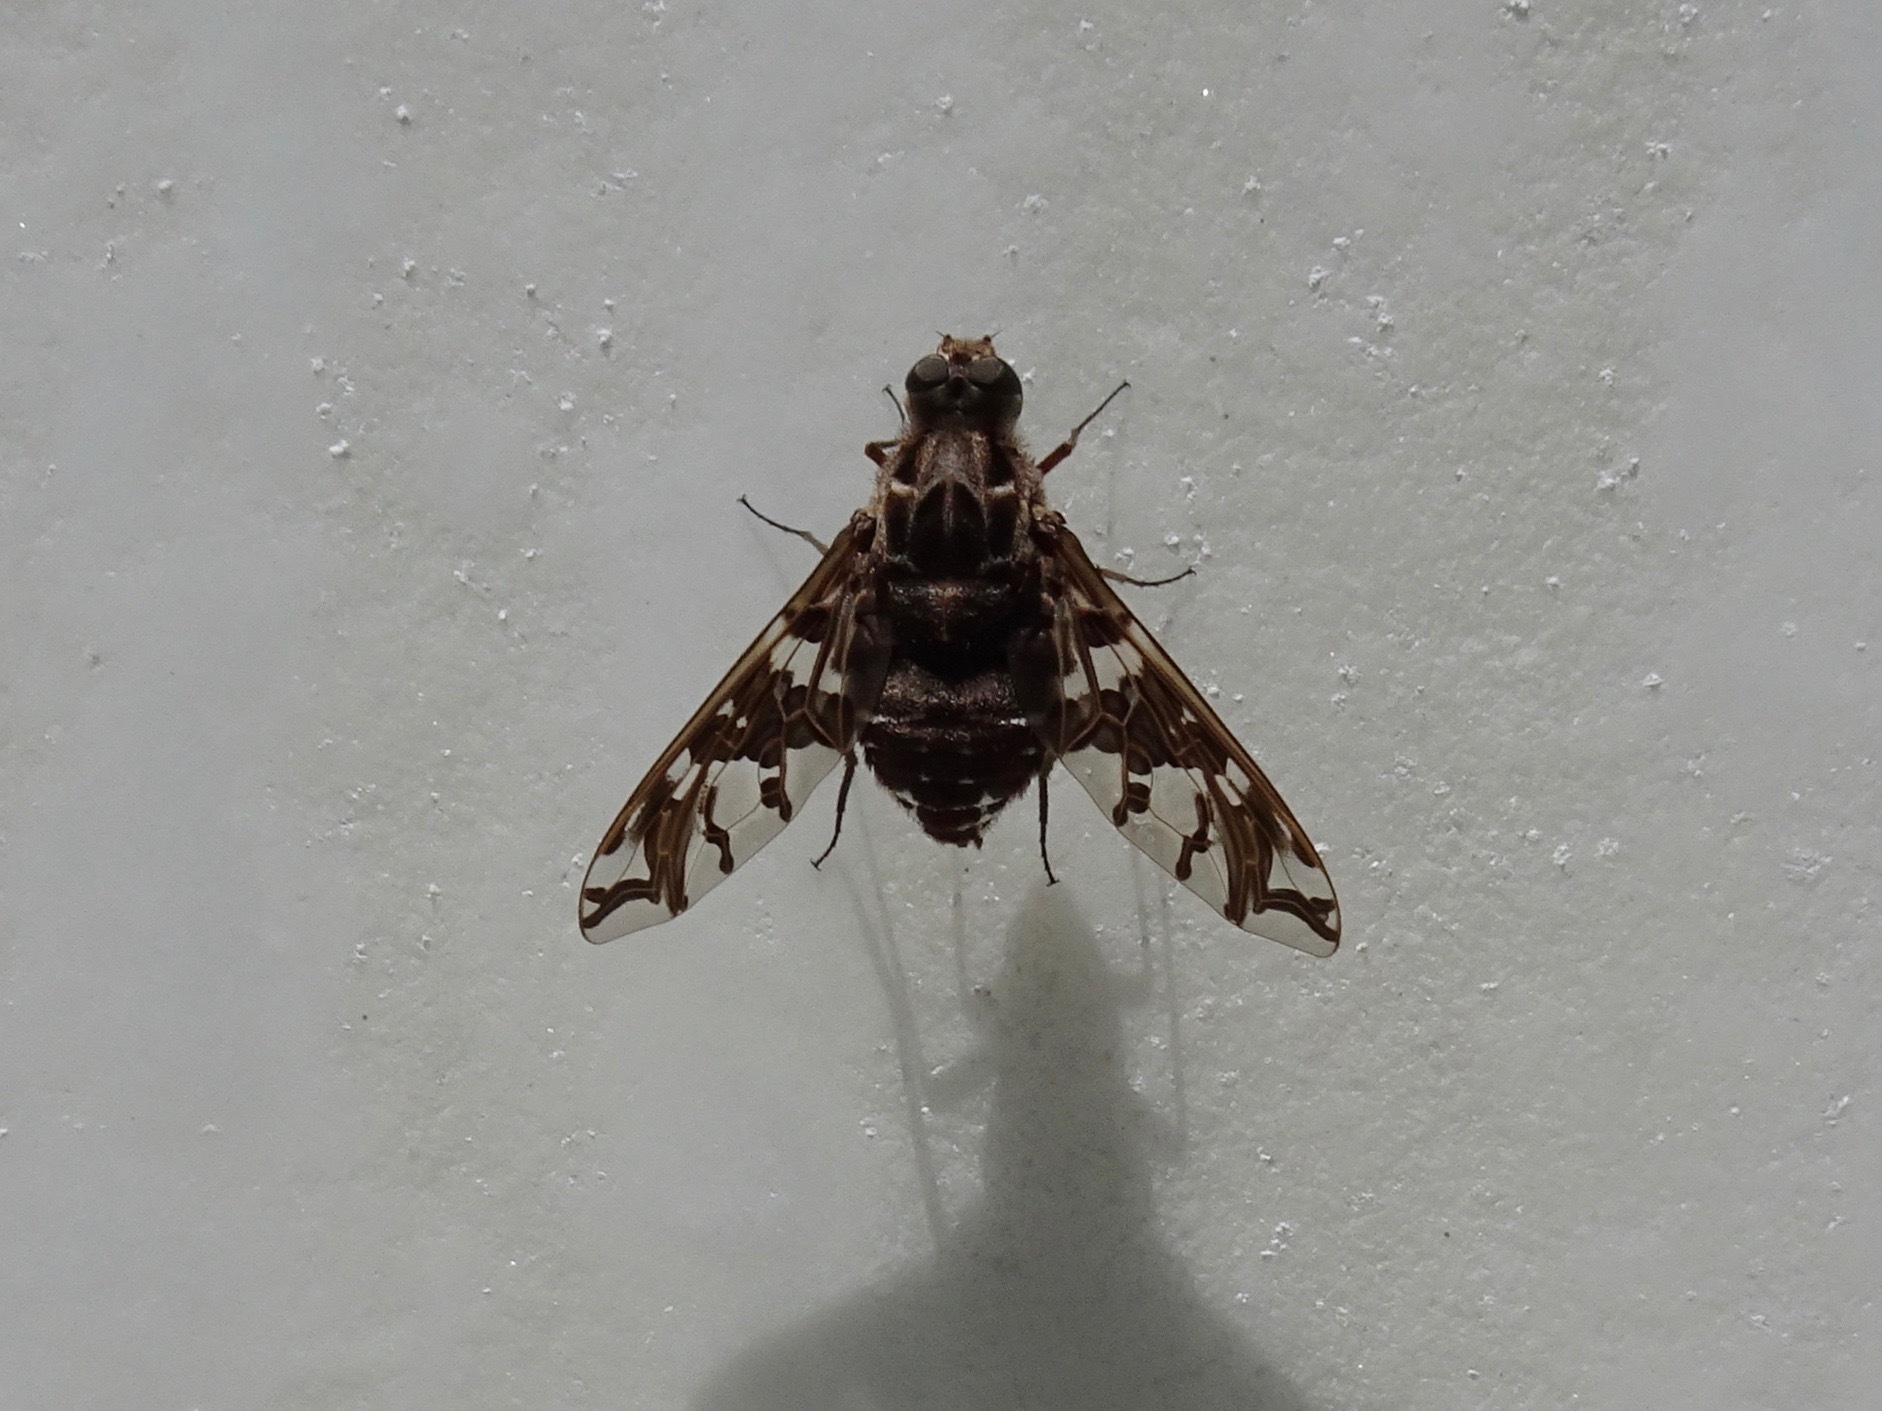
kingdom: Animalia
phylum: Arthropoda
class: Insecta
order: Diptera
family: Bombyliidae
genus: Xenox
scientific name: Xenox habrosus
